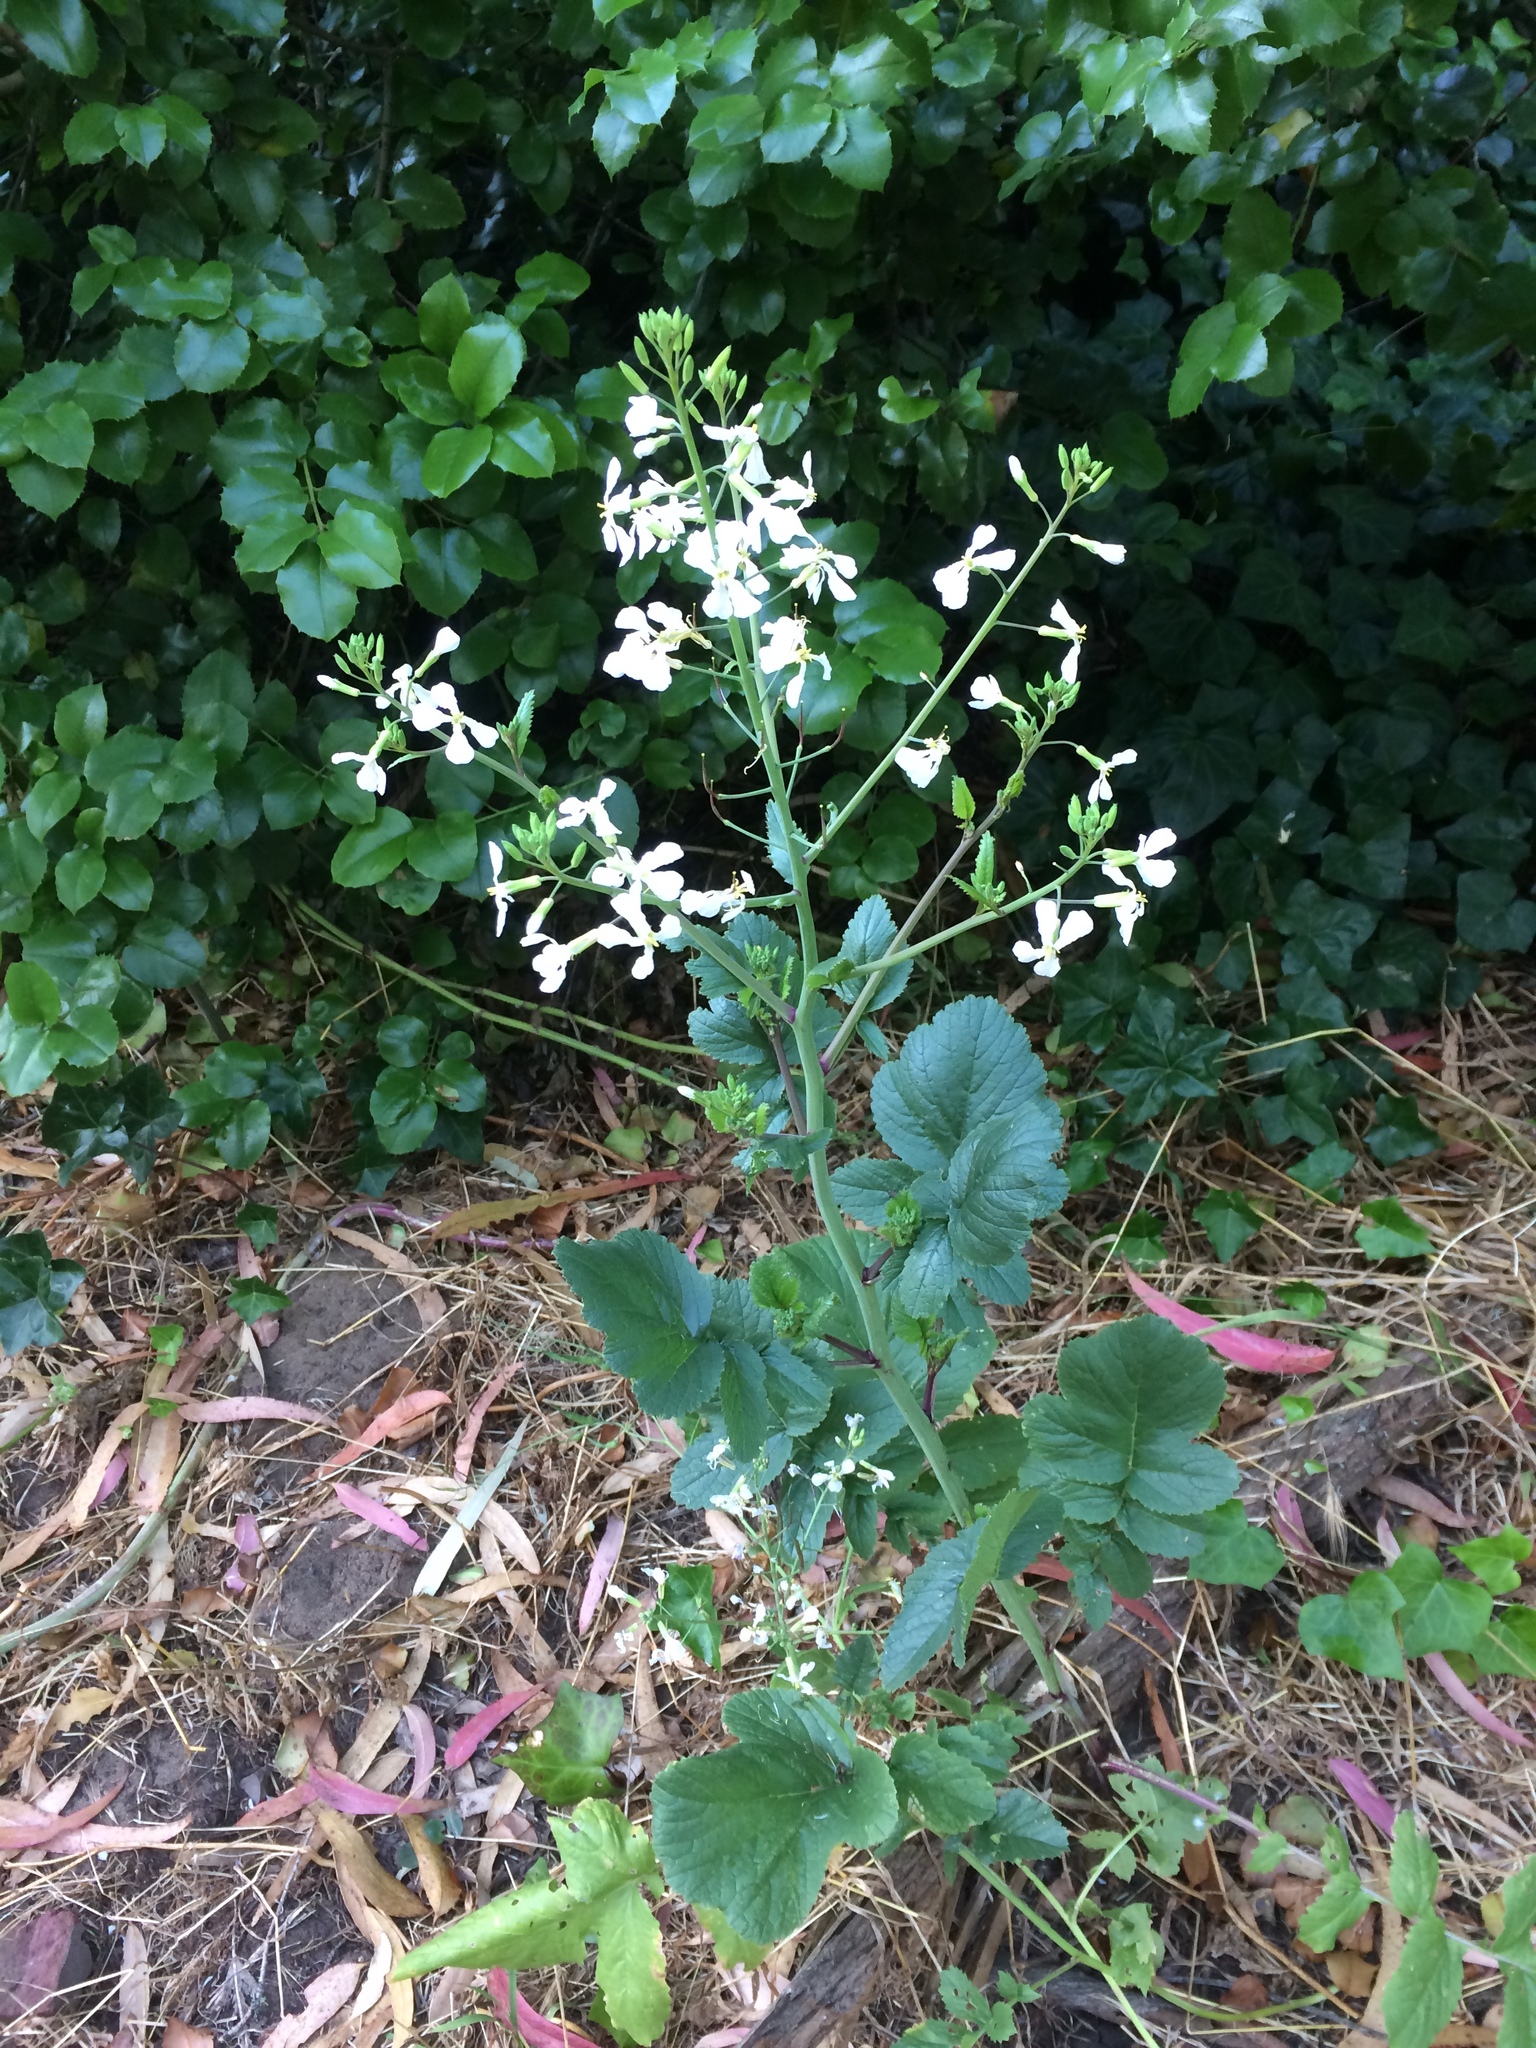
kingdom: Plantae
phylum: Tracheophyta
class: Magnoliopsida
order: Brassicales
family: Brassicaceae
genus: Raphanus
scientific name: Raphanus sativus
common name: Cultivated radish
